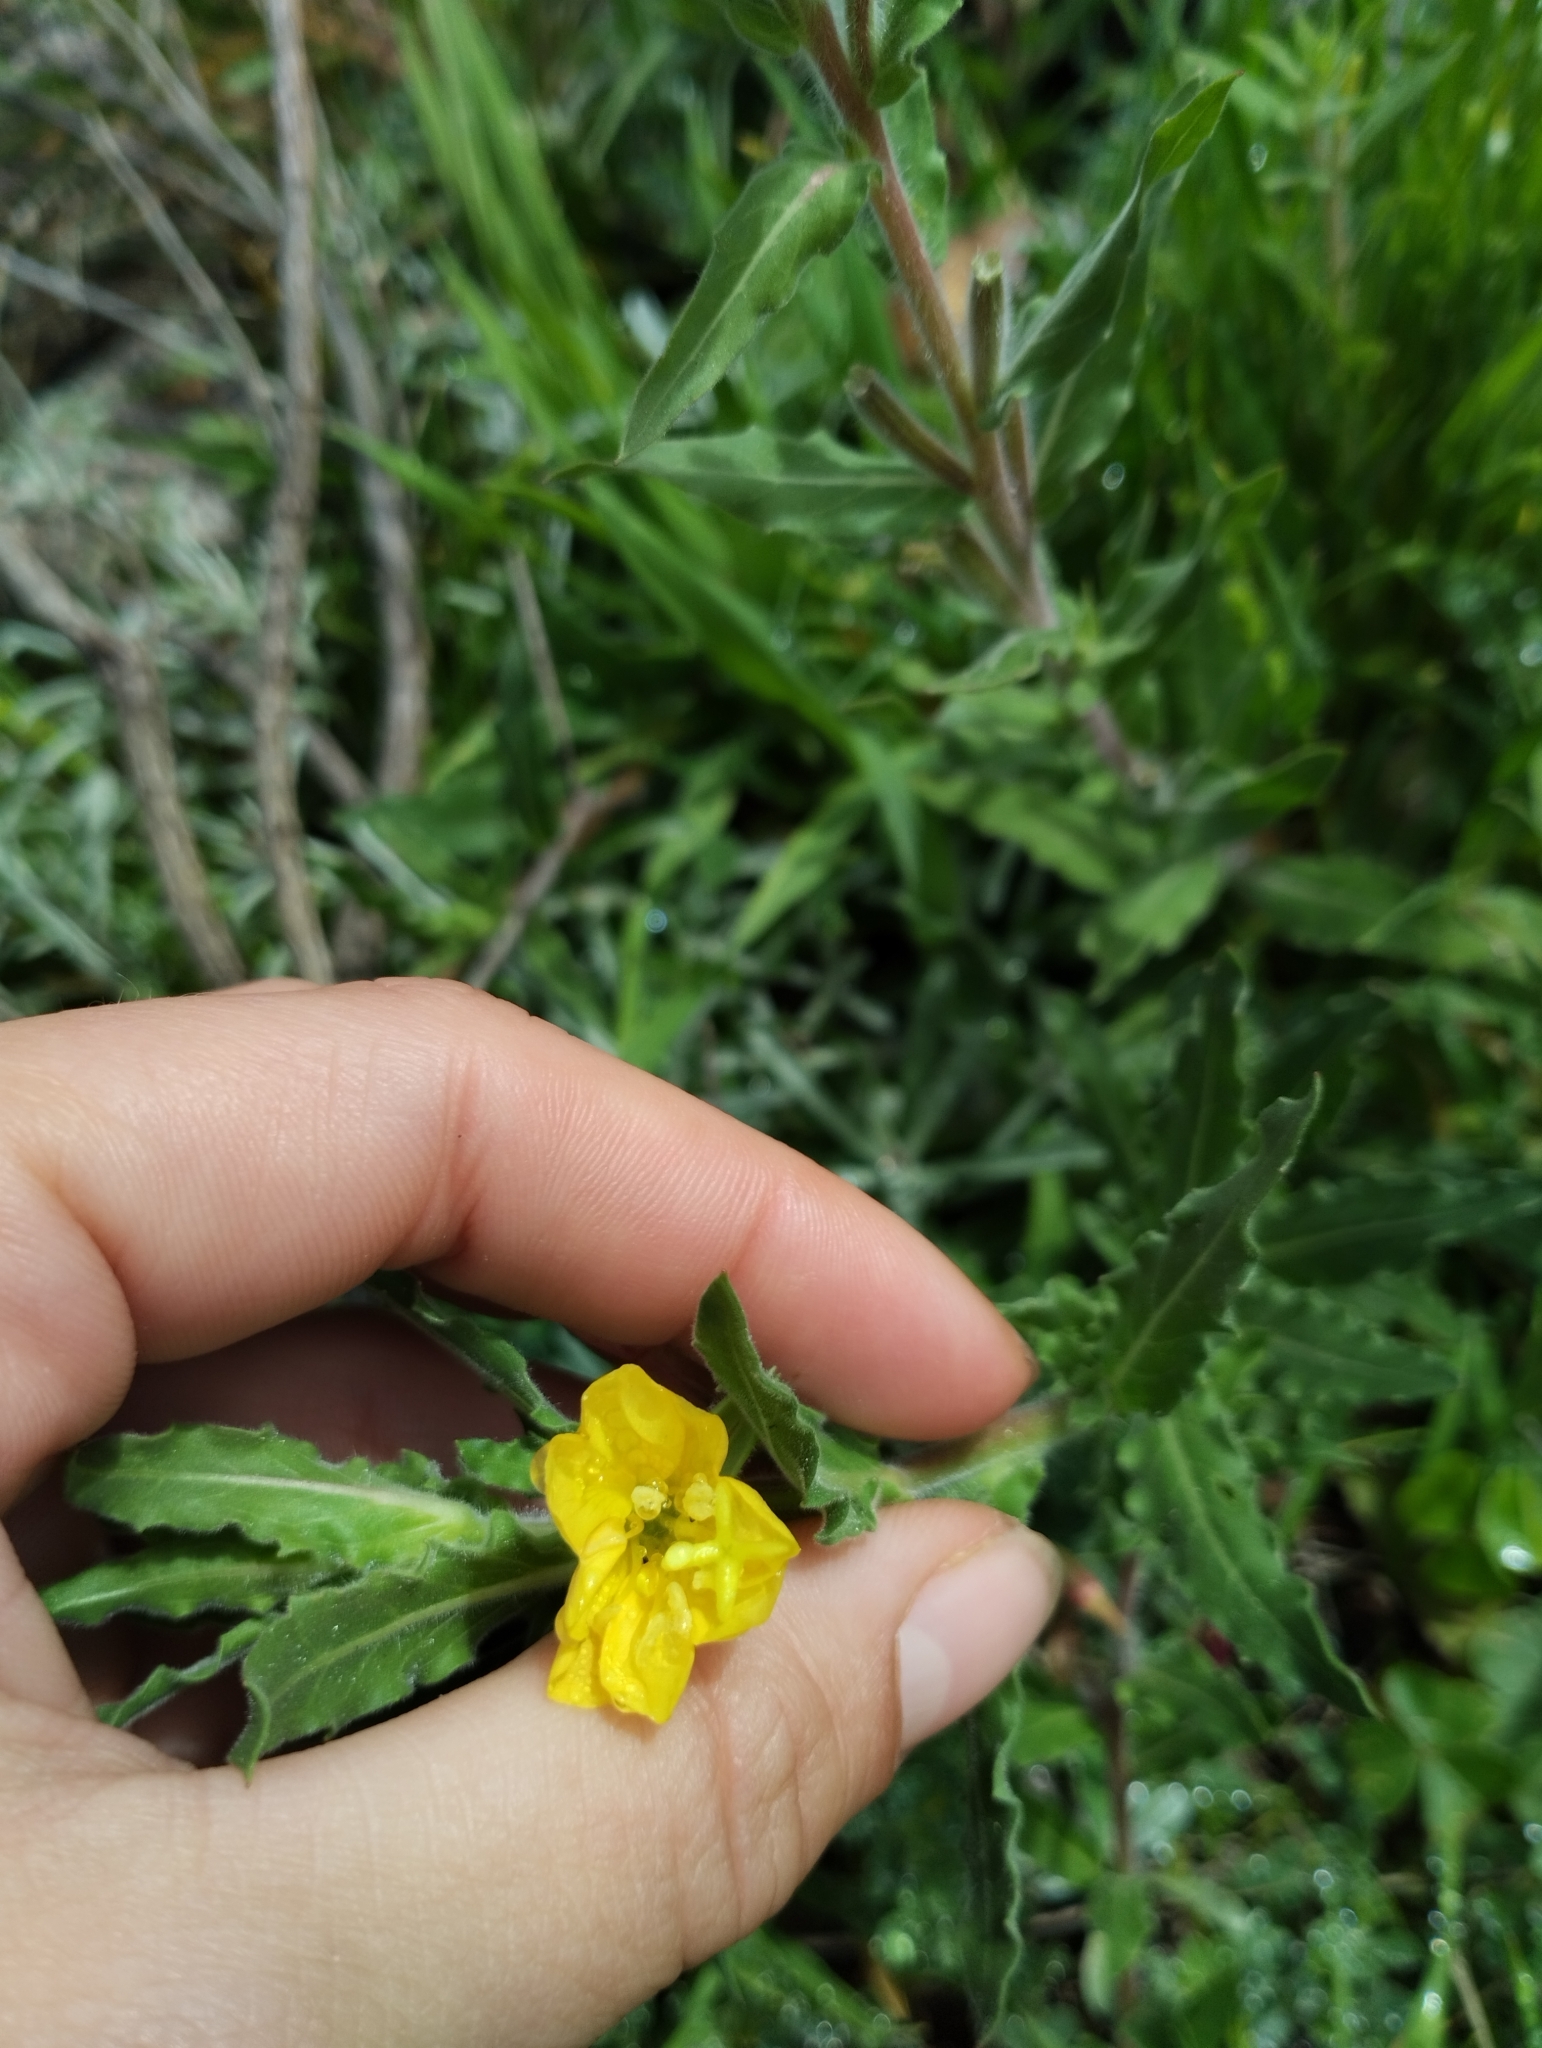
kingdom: Plantae
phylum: Tracheophyta
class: Magnoliopsida
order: Myrtales
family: Onagraceae
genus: Oenothera
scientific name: Oenothera indecora
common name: Small-flower evening-primrose
